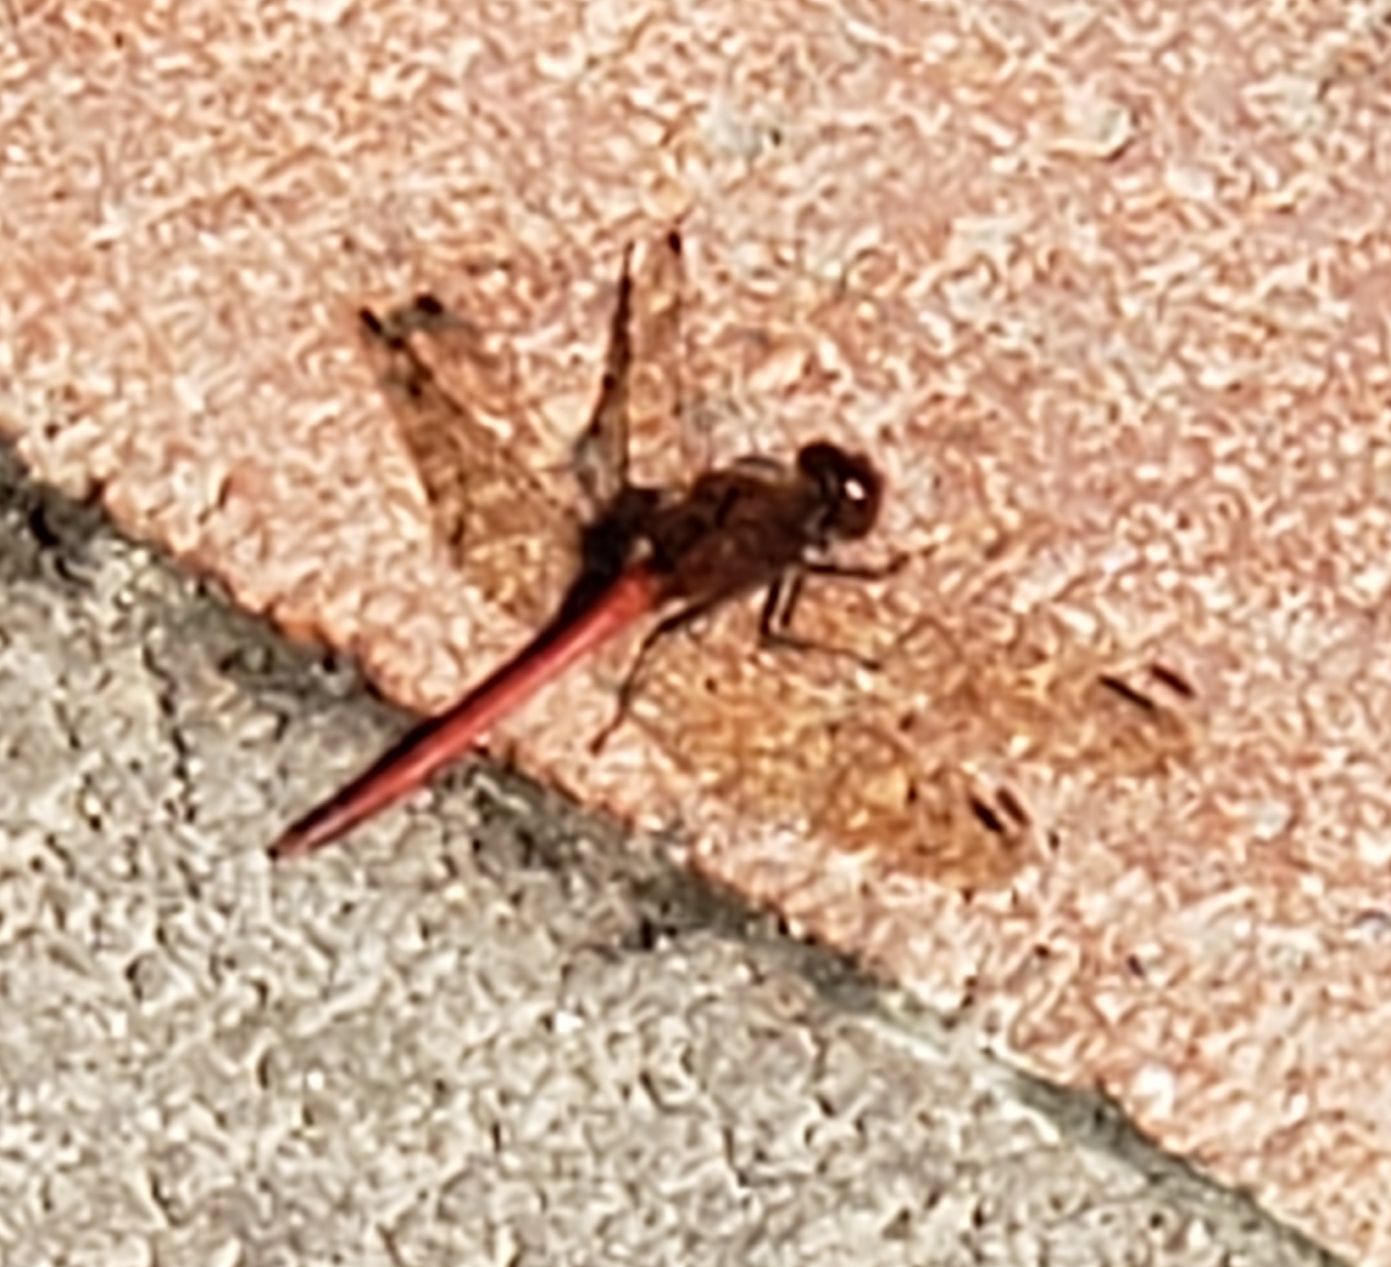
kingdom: Animalia
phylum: Arthropoda
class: Insecta
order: Odonata
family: Libellulidae
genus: Sympetrum
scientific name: Sympetrum vicinum
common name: Autumn meadowhawk
